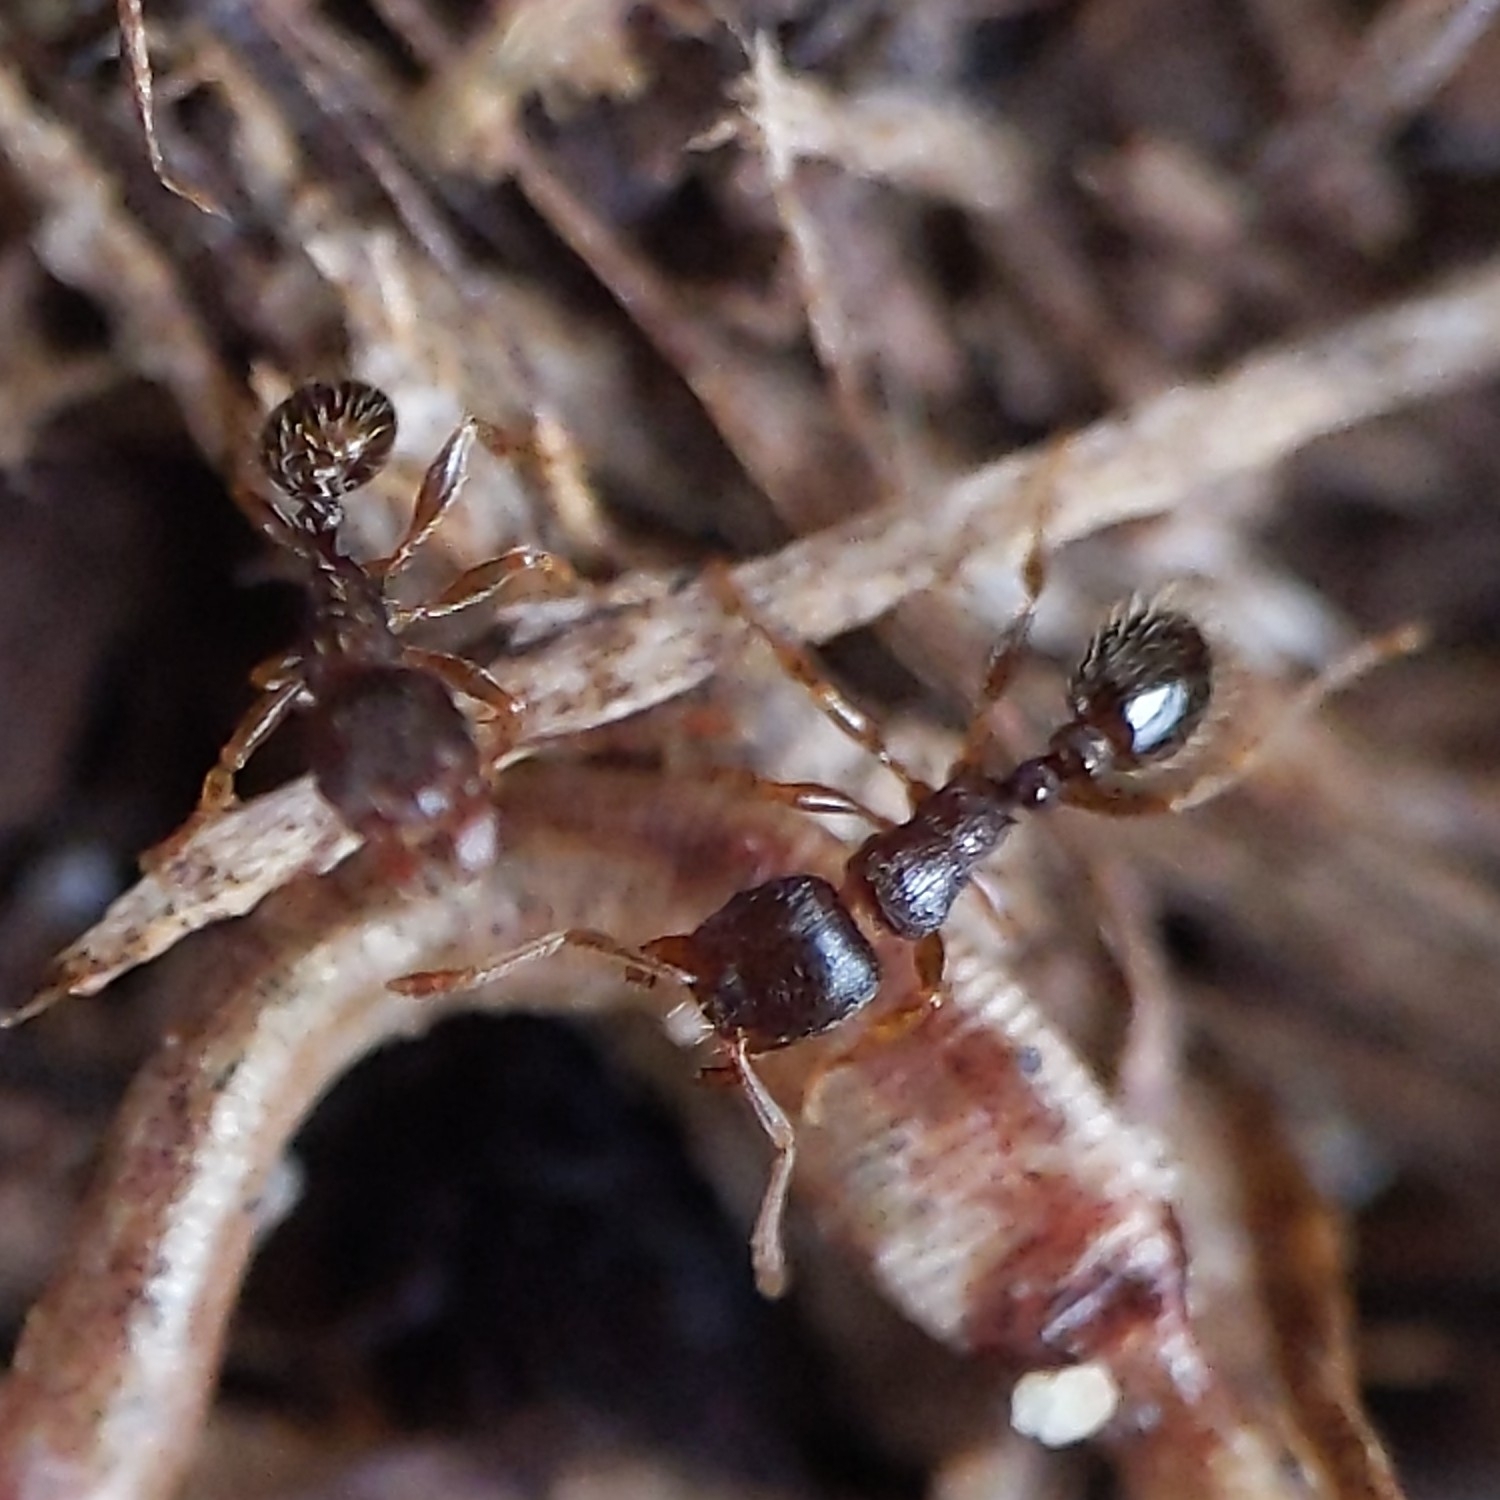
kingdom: Animalia
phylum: Arthropoda
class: Insecta
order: Hymenoptera
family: Formicidae
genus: Tetramorium
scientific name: Tetramorium immigrans
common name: Pavement ant
